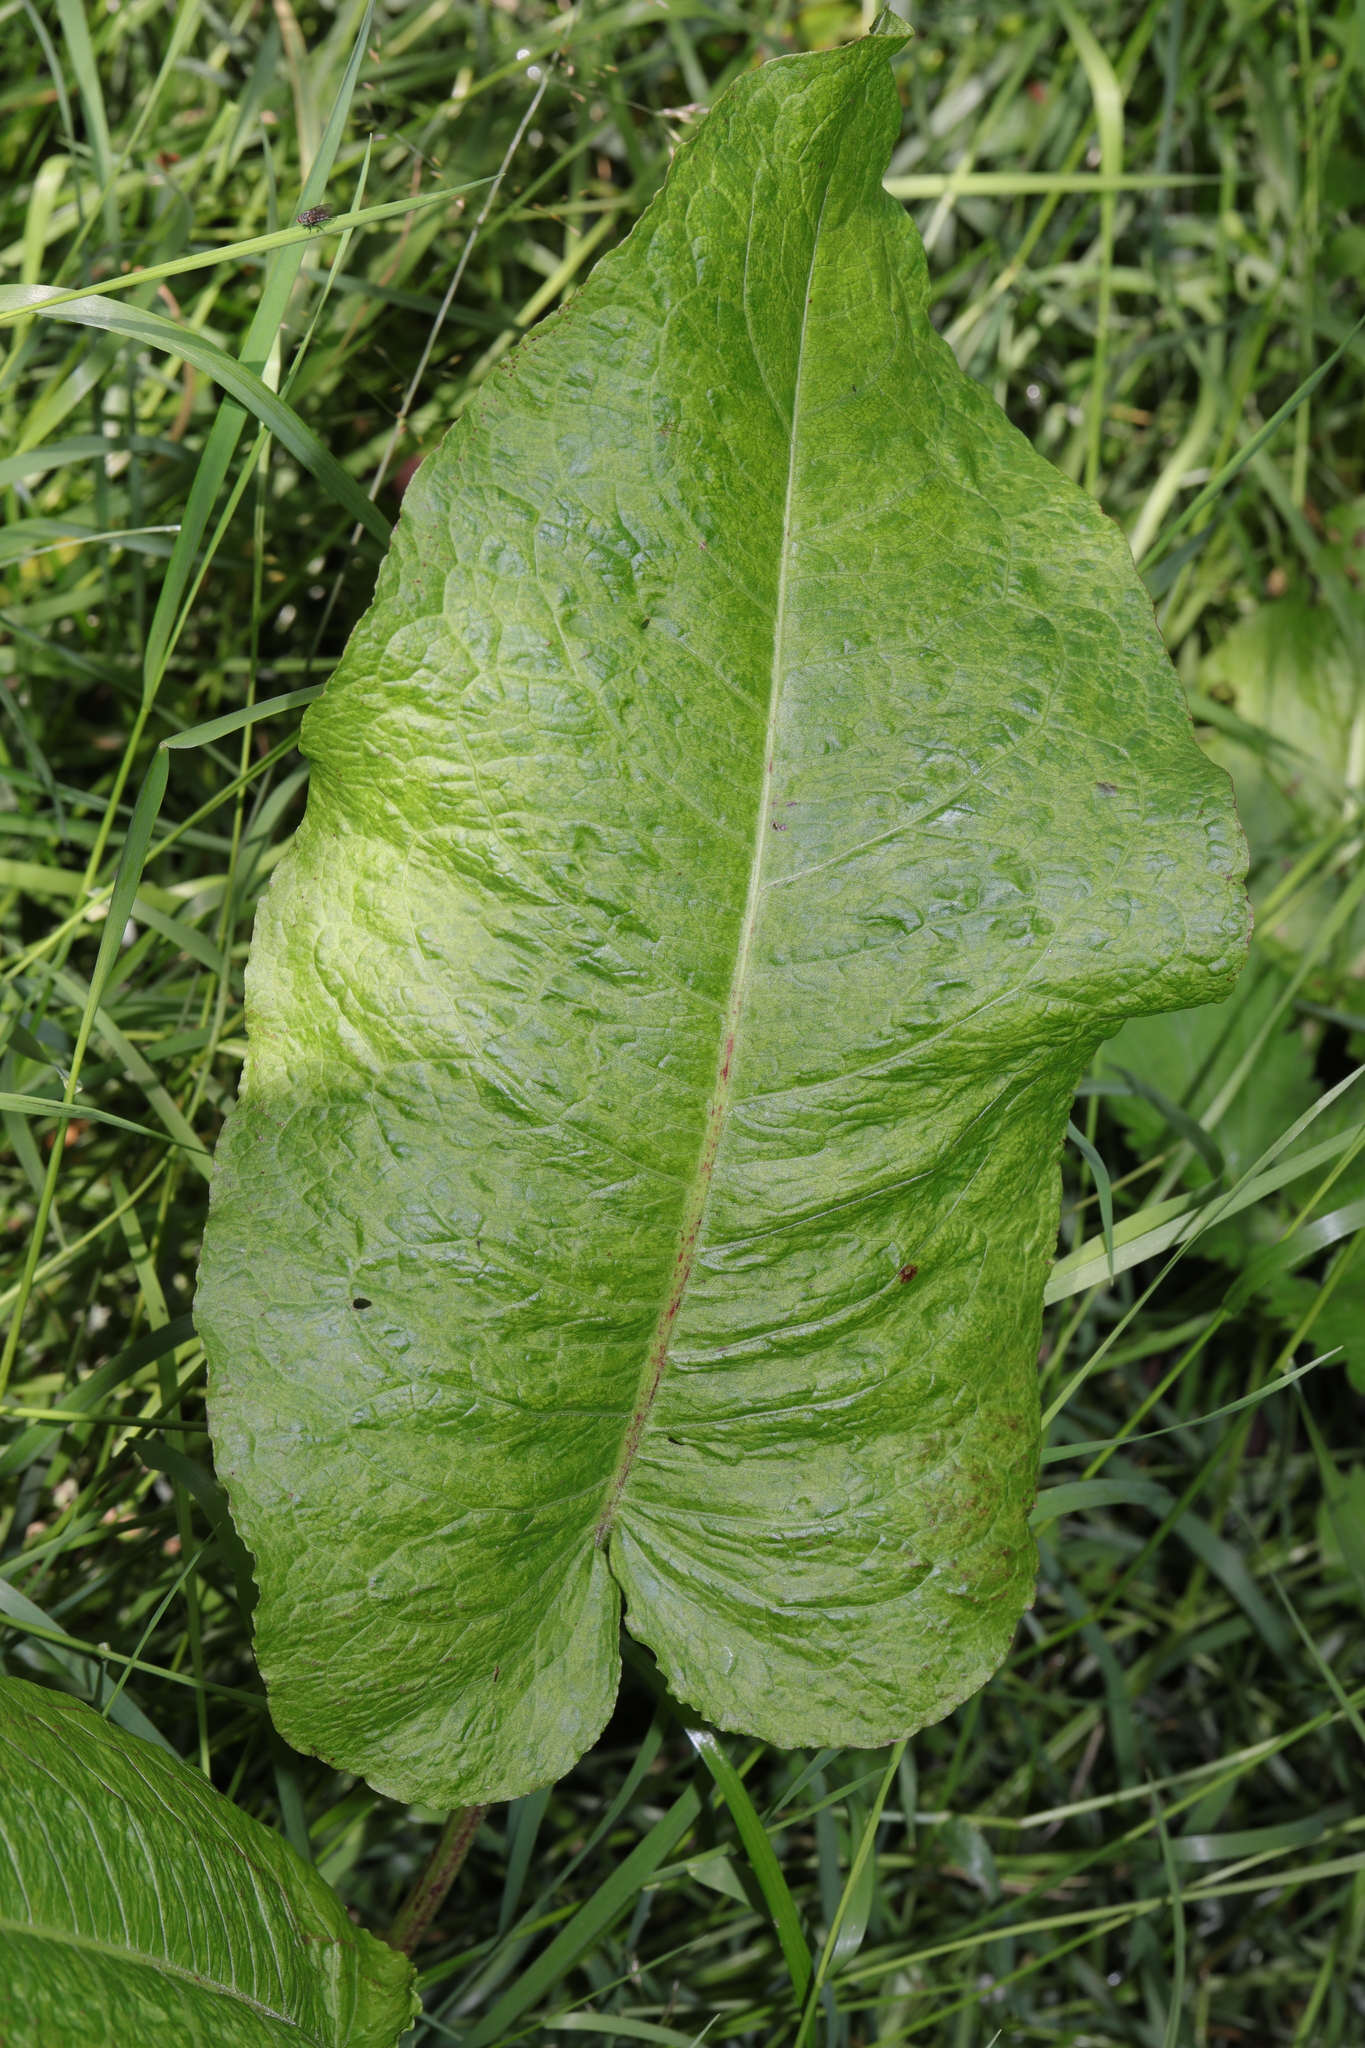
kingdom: Plantae
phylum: Tracheophyta
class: Magnoliopsida
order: Caryophyllales
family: Polygonaceae
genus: Rumex
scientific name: Rumex obtusifolius
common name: Bitter dock
